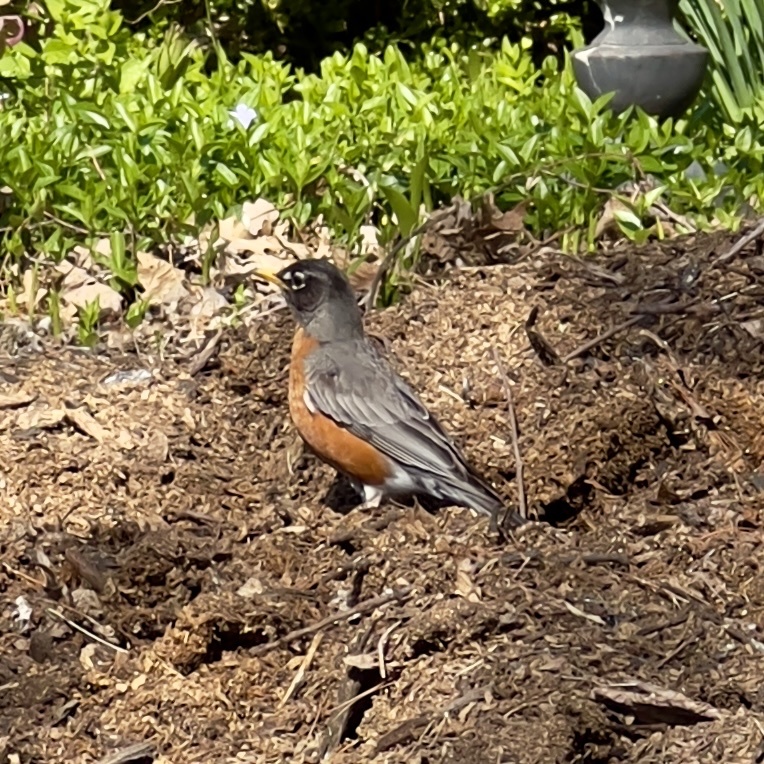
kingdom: Animalia
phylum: Chordata
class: Aves
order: Passeriformes
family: Turdidae
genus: Turdus
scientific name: Turdus migratorius
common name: American robin
